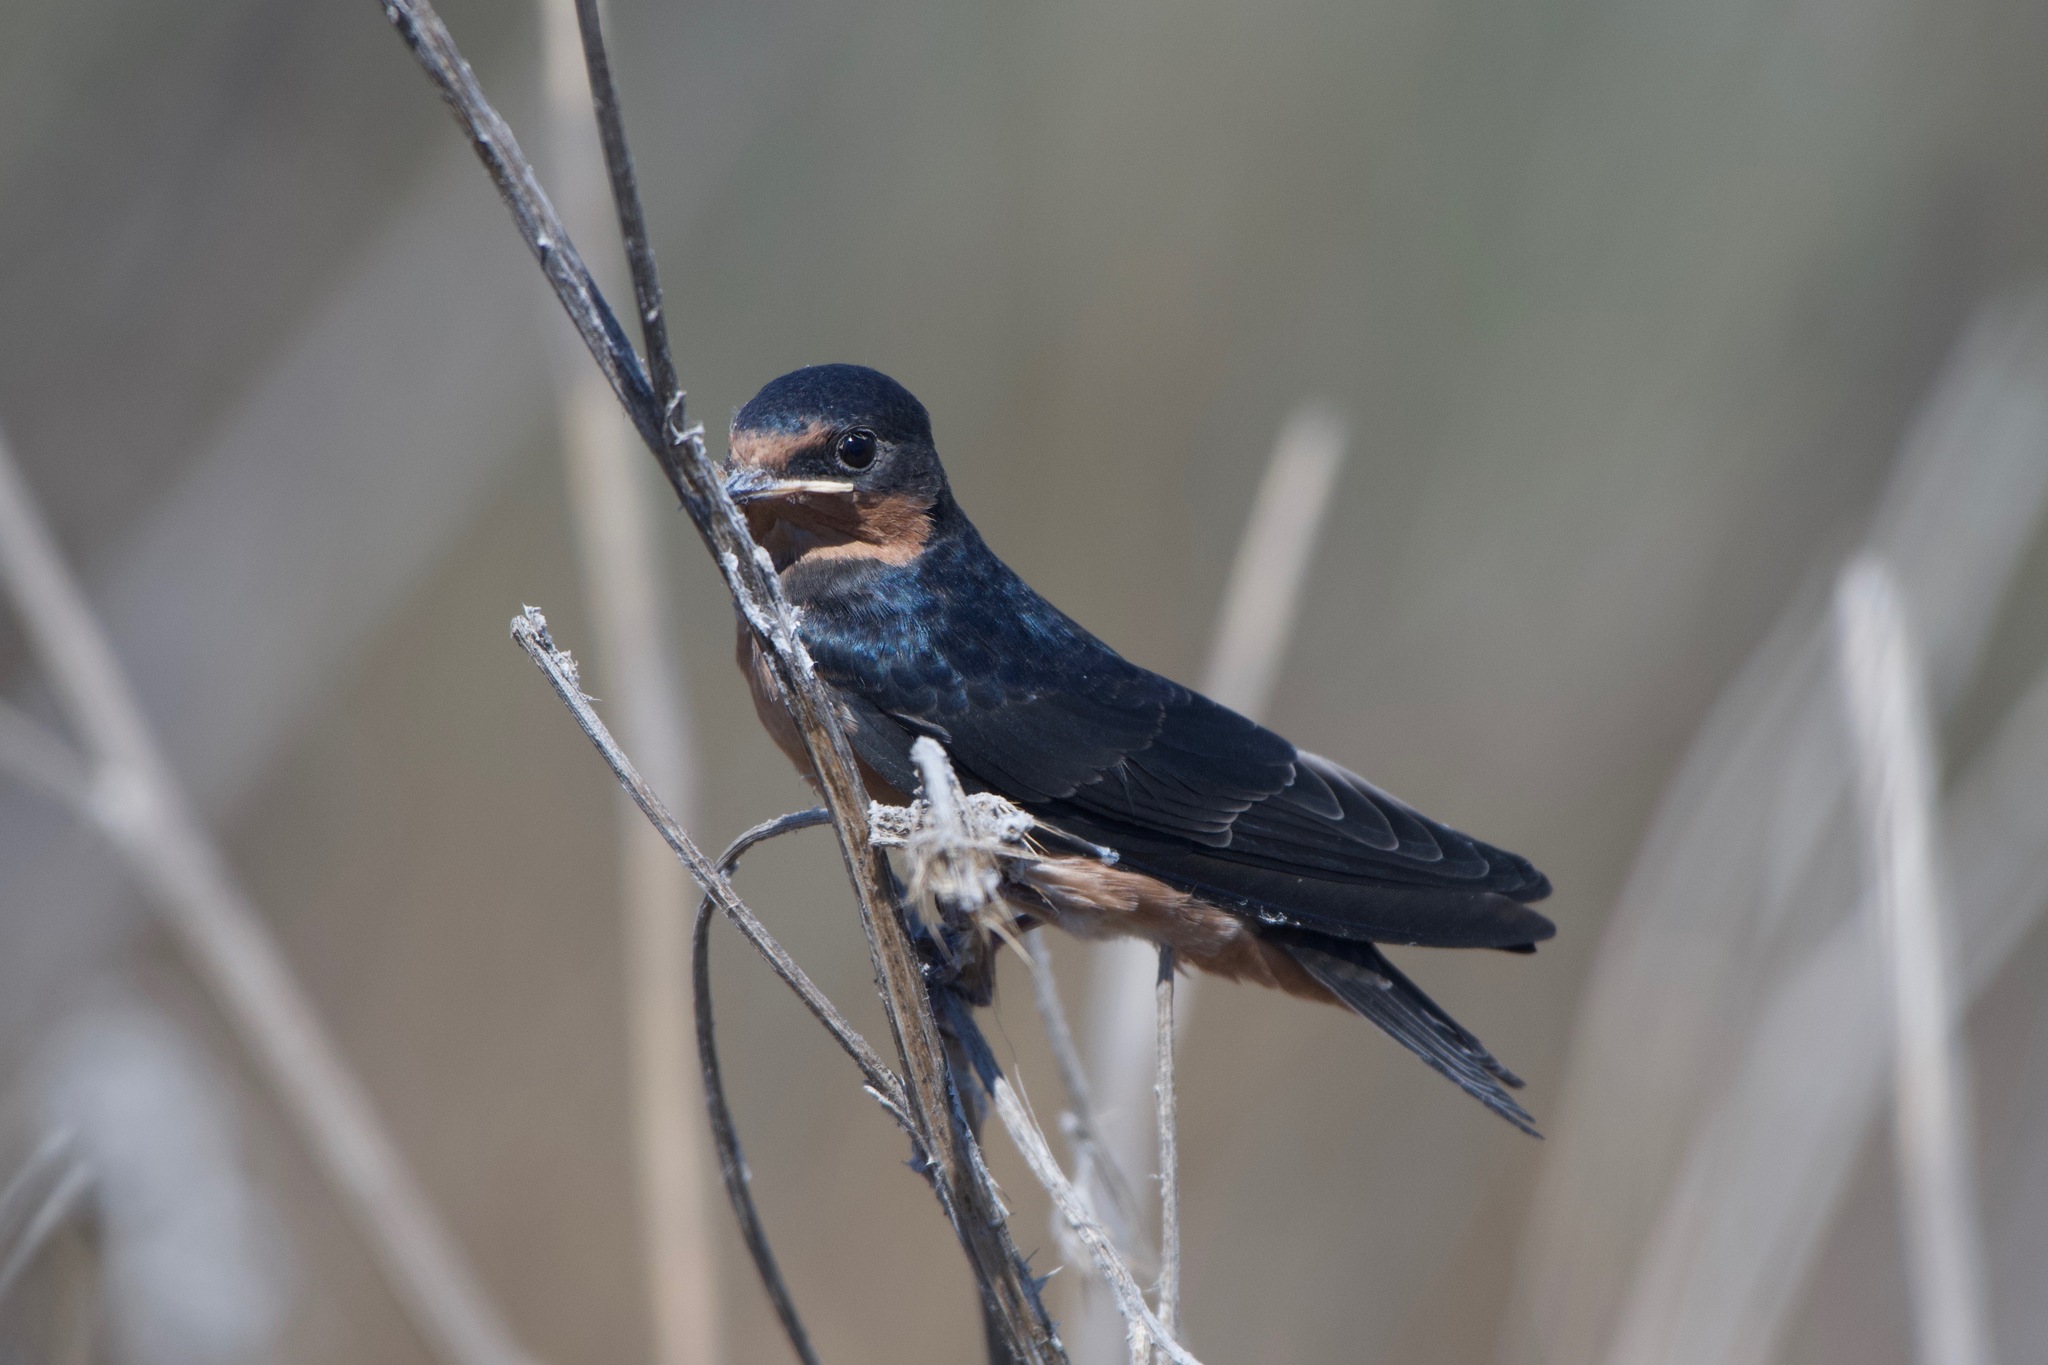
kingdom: Animalia
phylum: Chordata
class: Aves
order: Passeriformes
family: Hirundinidae
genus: Hirundo
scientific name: Hirundo rustica
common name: Barn swallow
